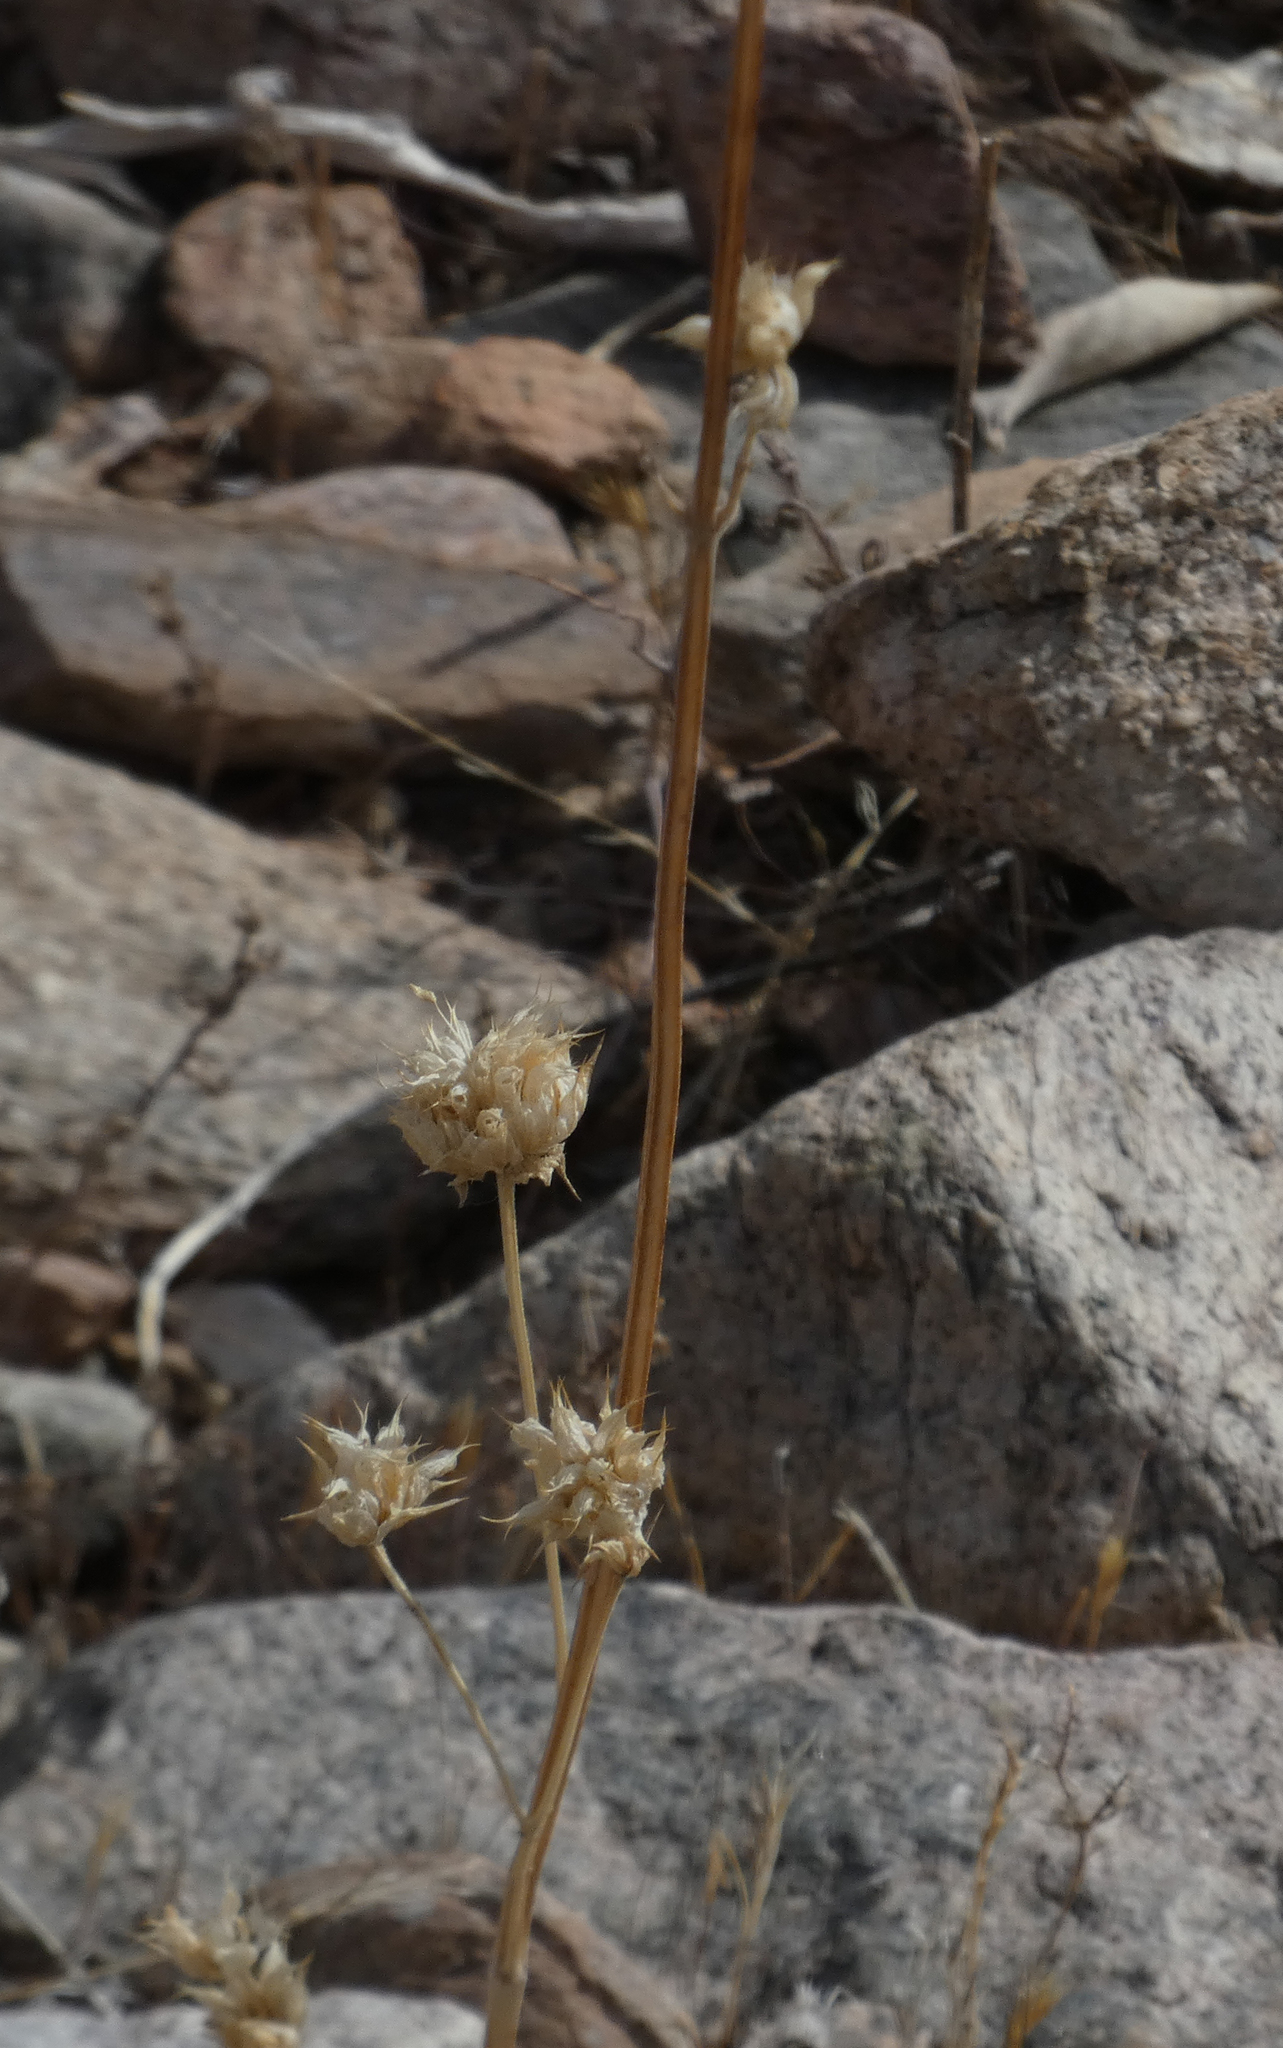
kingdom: Plantae
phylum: Tracheophyta
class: Magnoliopsida
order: Lamiales
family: Lamiaceae
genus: Salvia
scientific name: Salvia columbariae
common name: Chia
